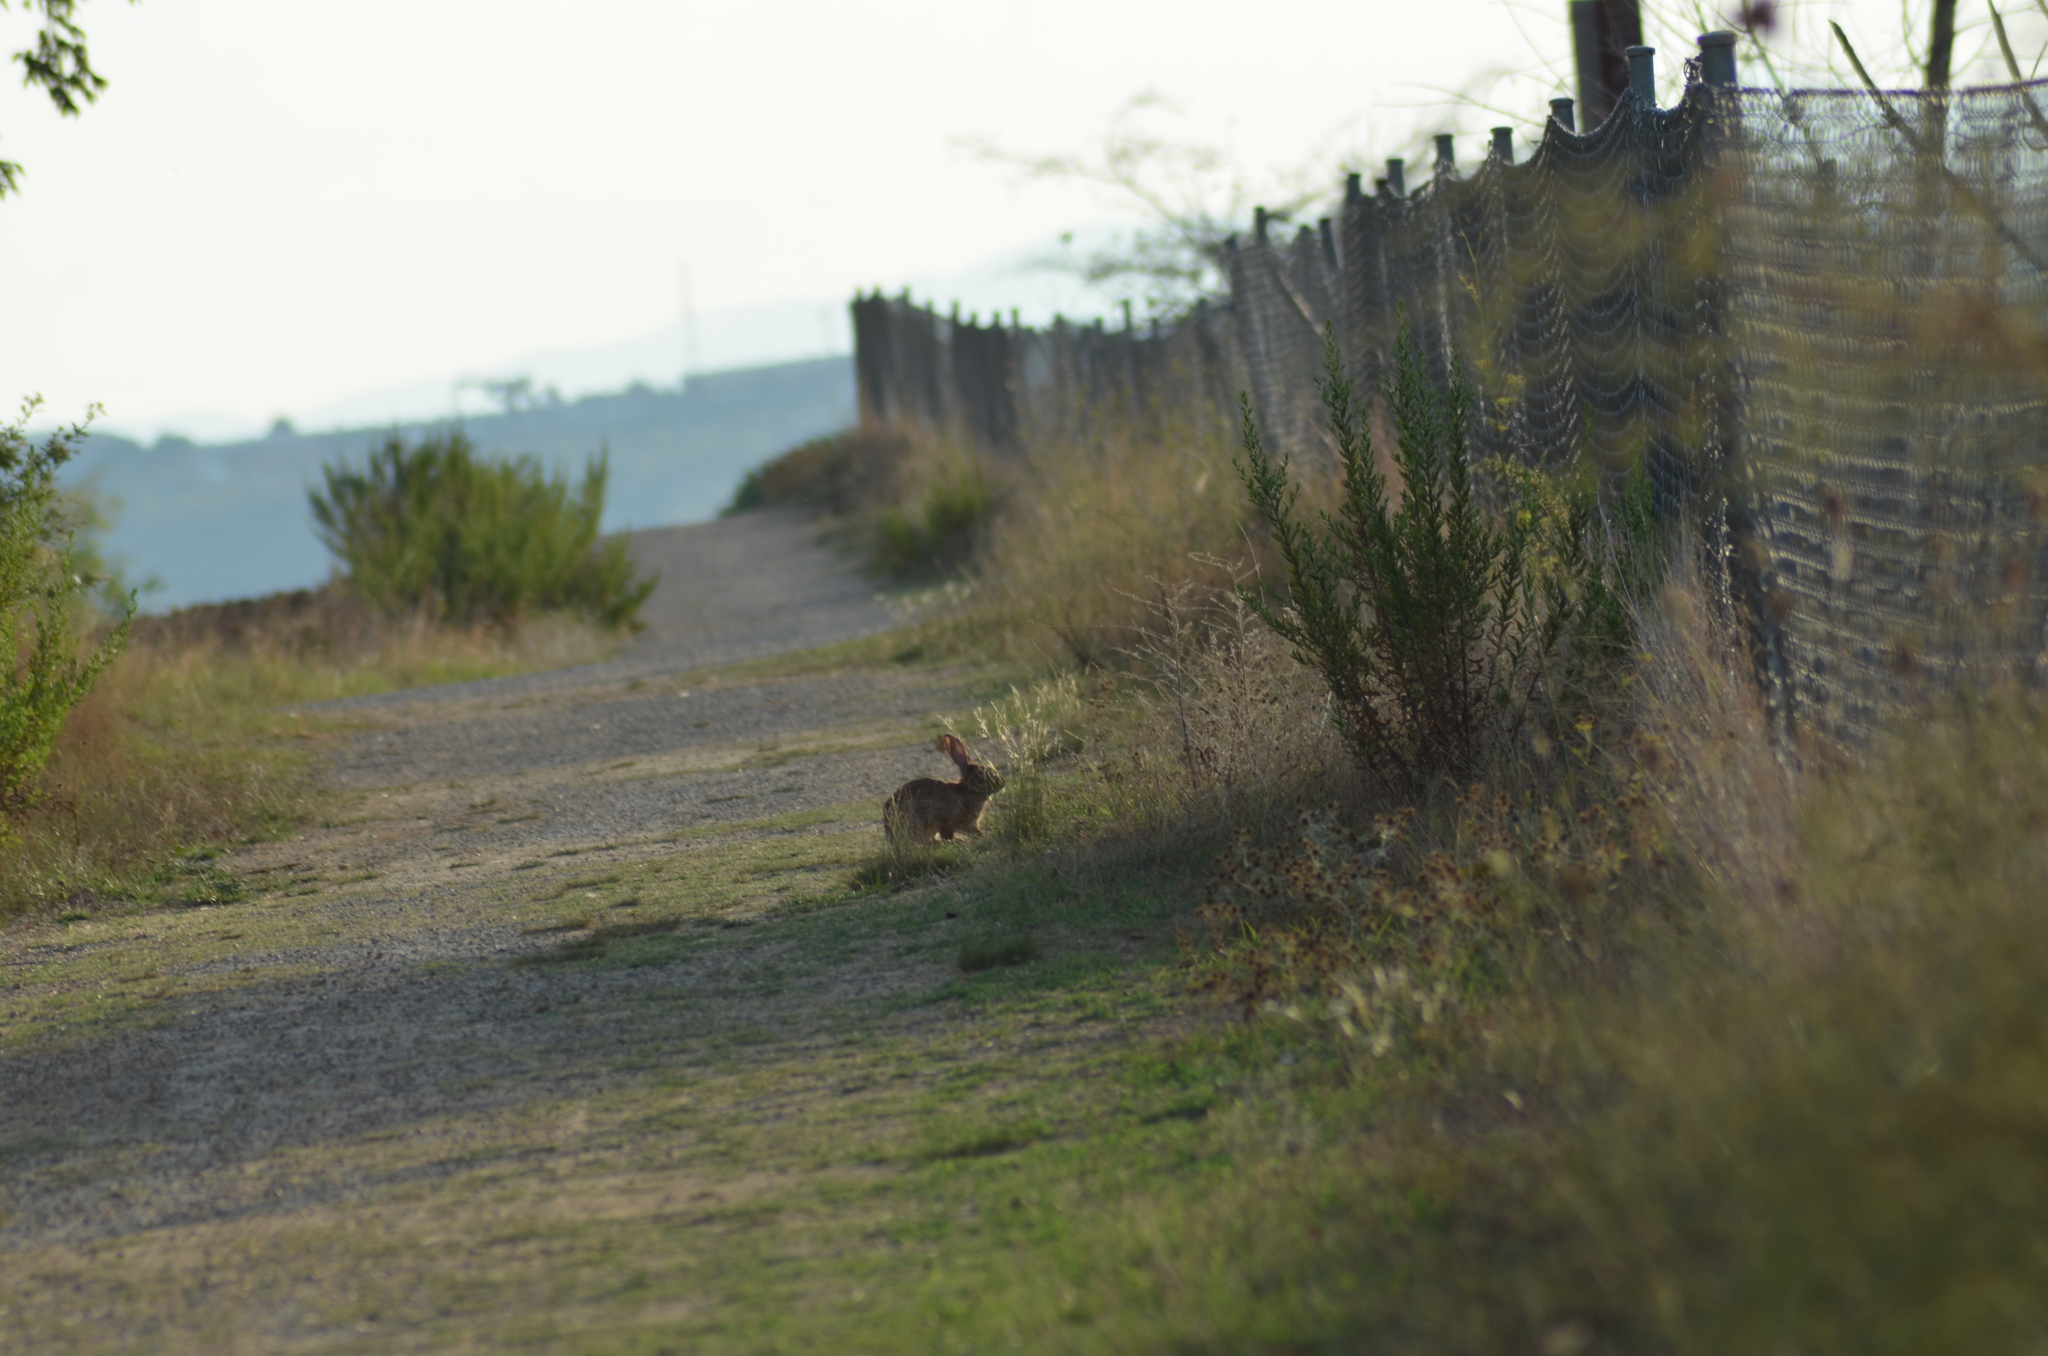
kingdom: Animalia
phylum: Chordata
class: Mammalia
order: Lagomorpha
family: Leporidae
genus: Oryctolagus
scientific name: Oryctolagus cuniculus
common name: European rabbit
